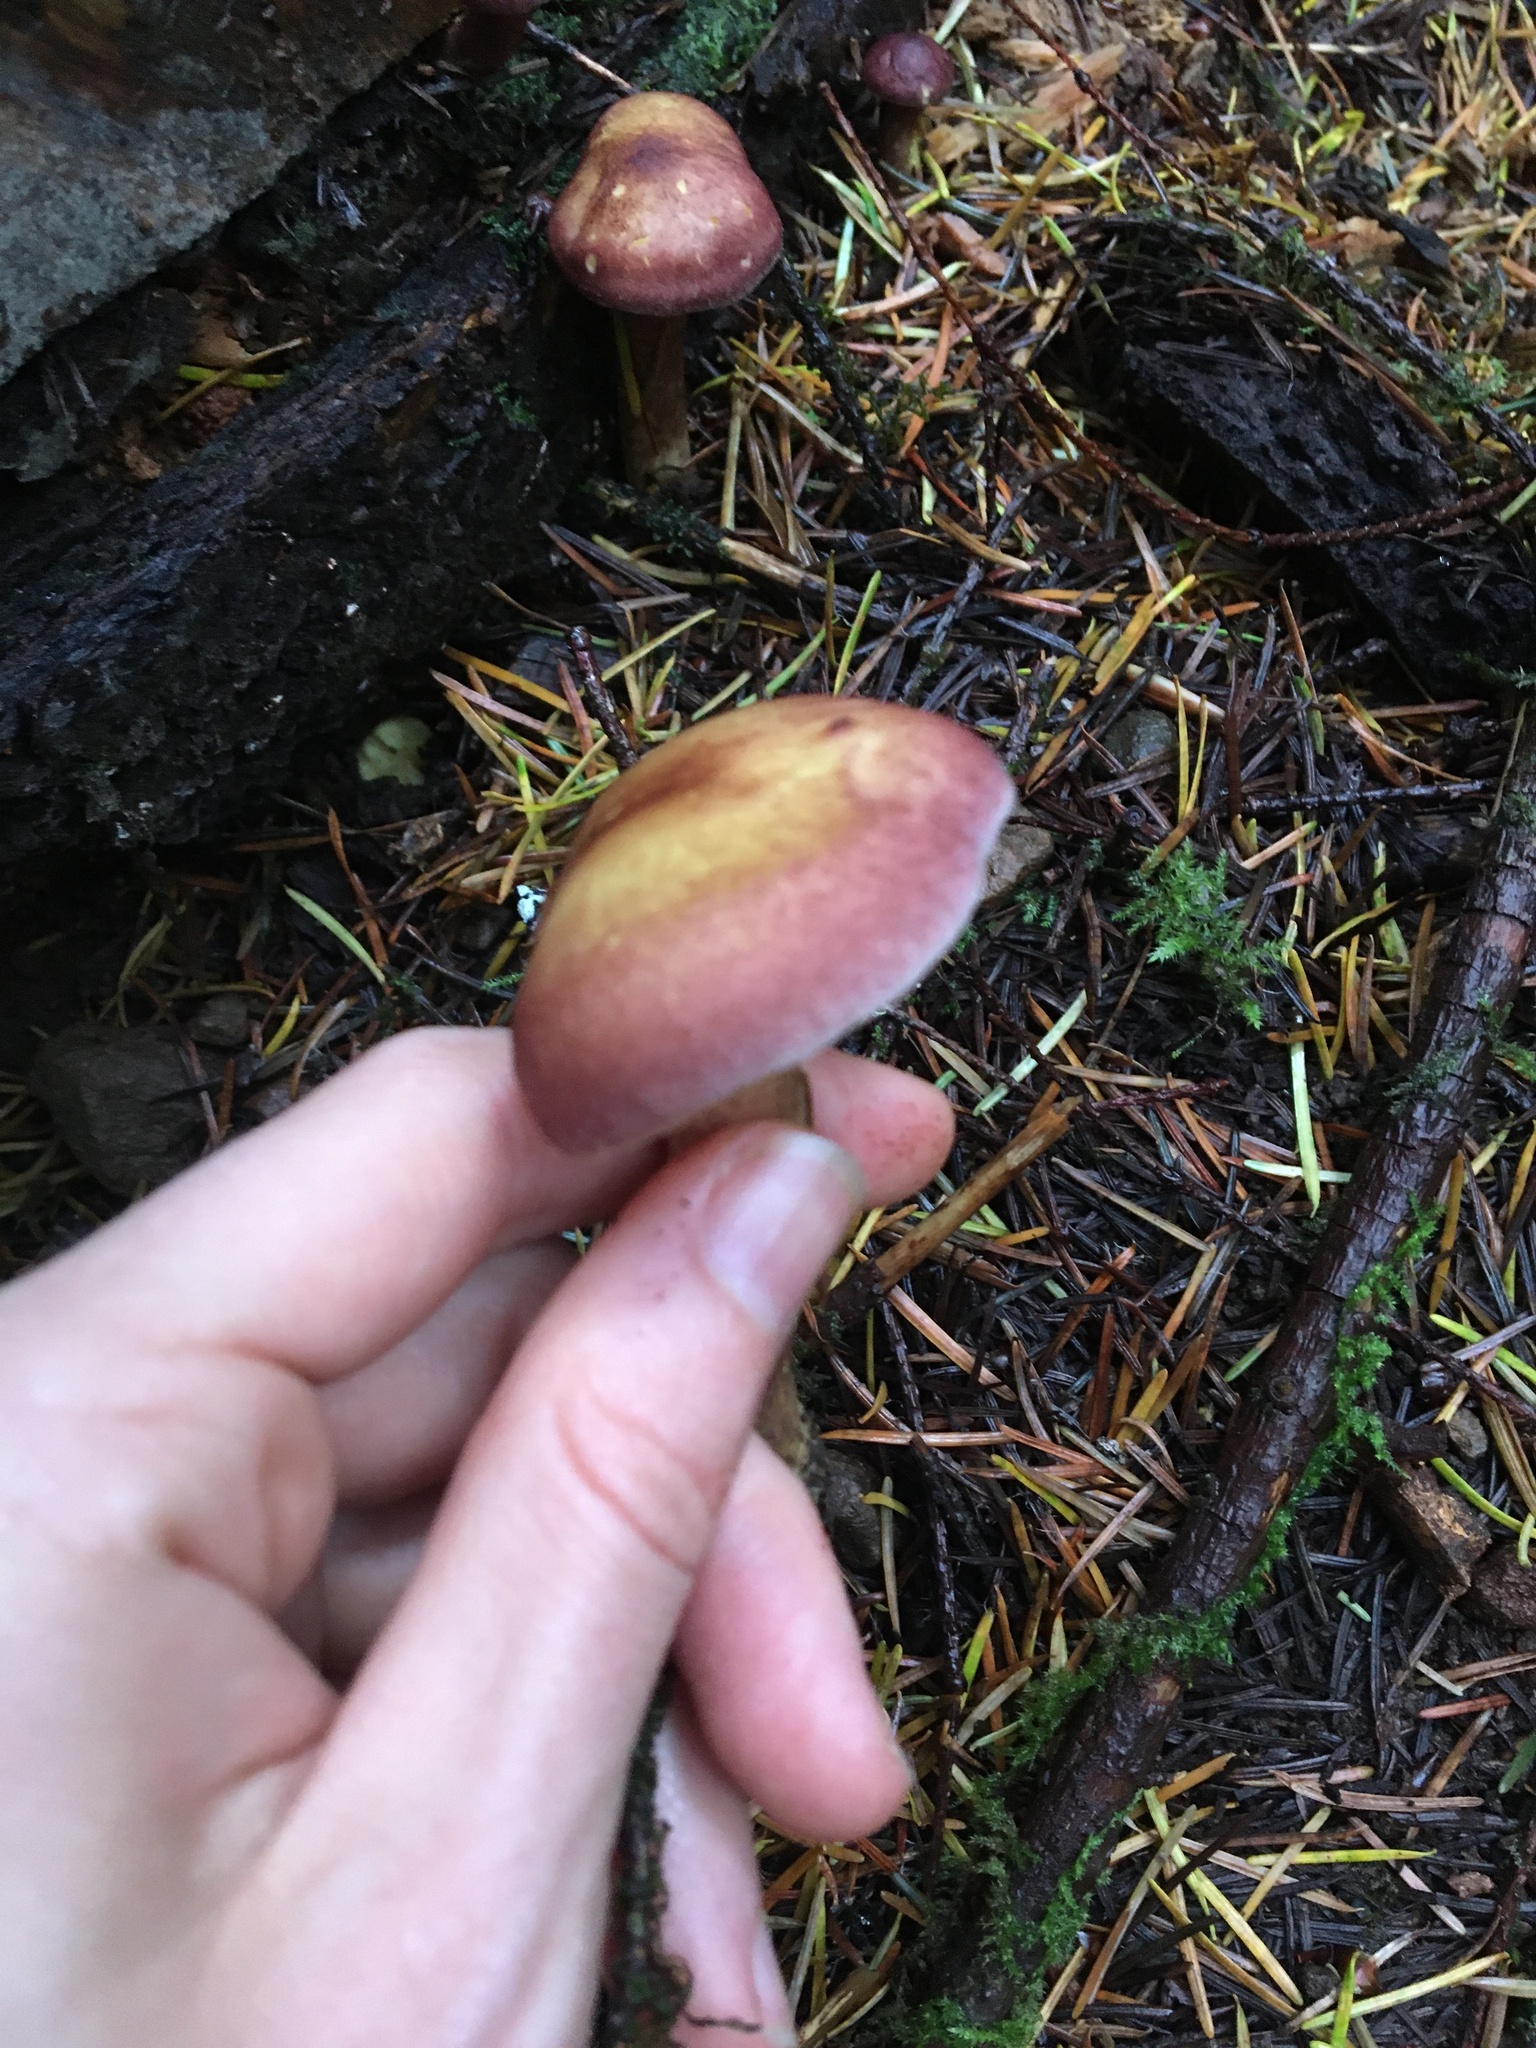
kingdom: Fungi
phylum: Basidiomycota
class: Agaricomycetes
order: Agaricales
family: Tricholomataceae
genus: Tricholomopsis
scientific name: Tricholomopsis rutilans
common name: Plums and custard
